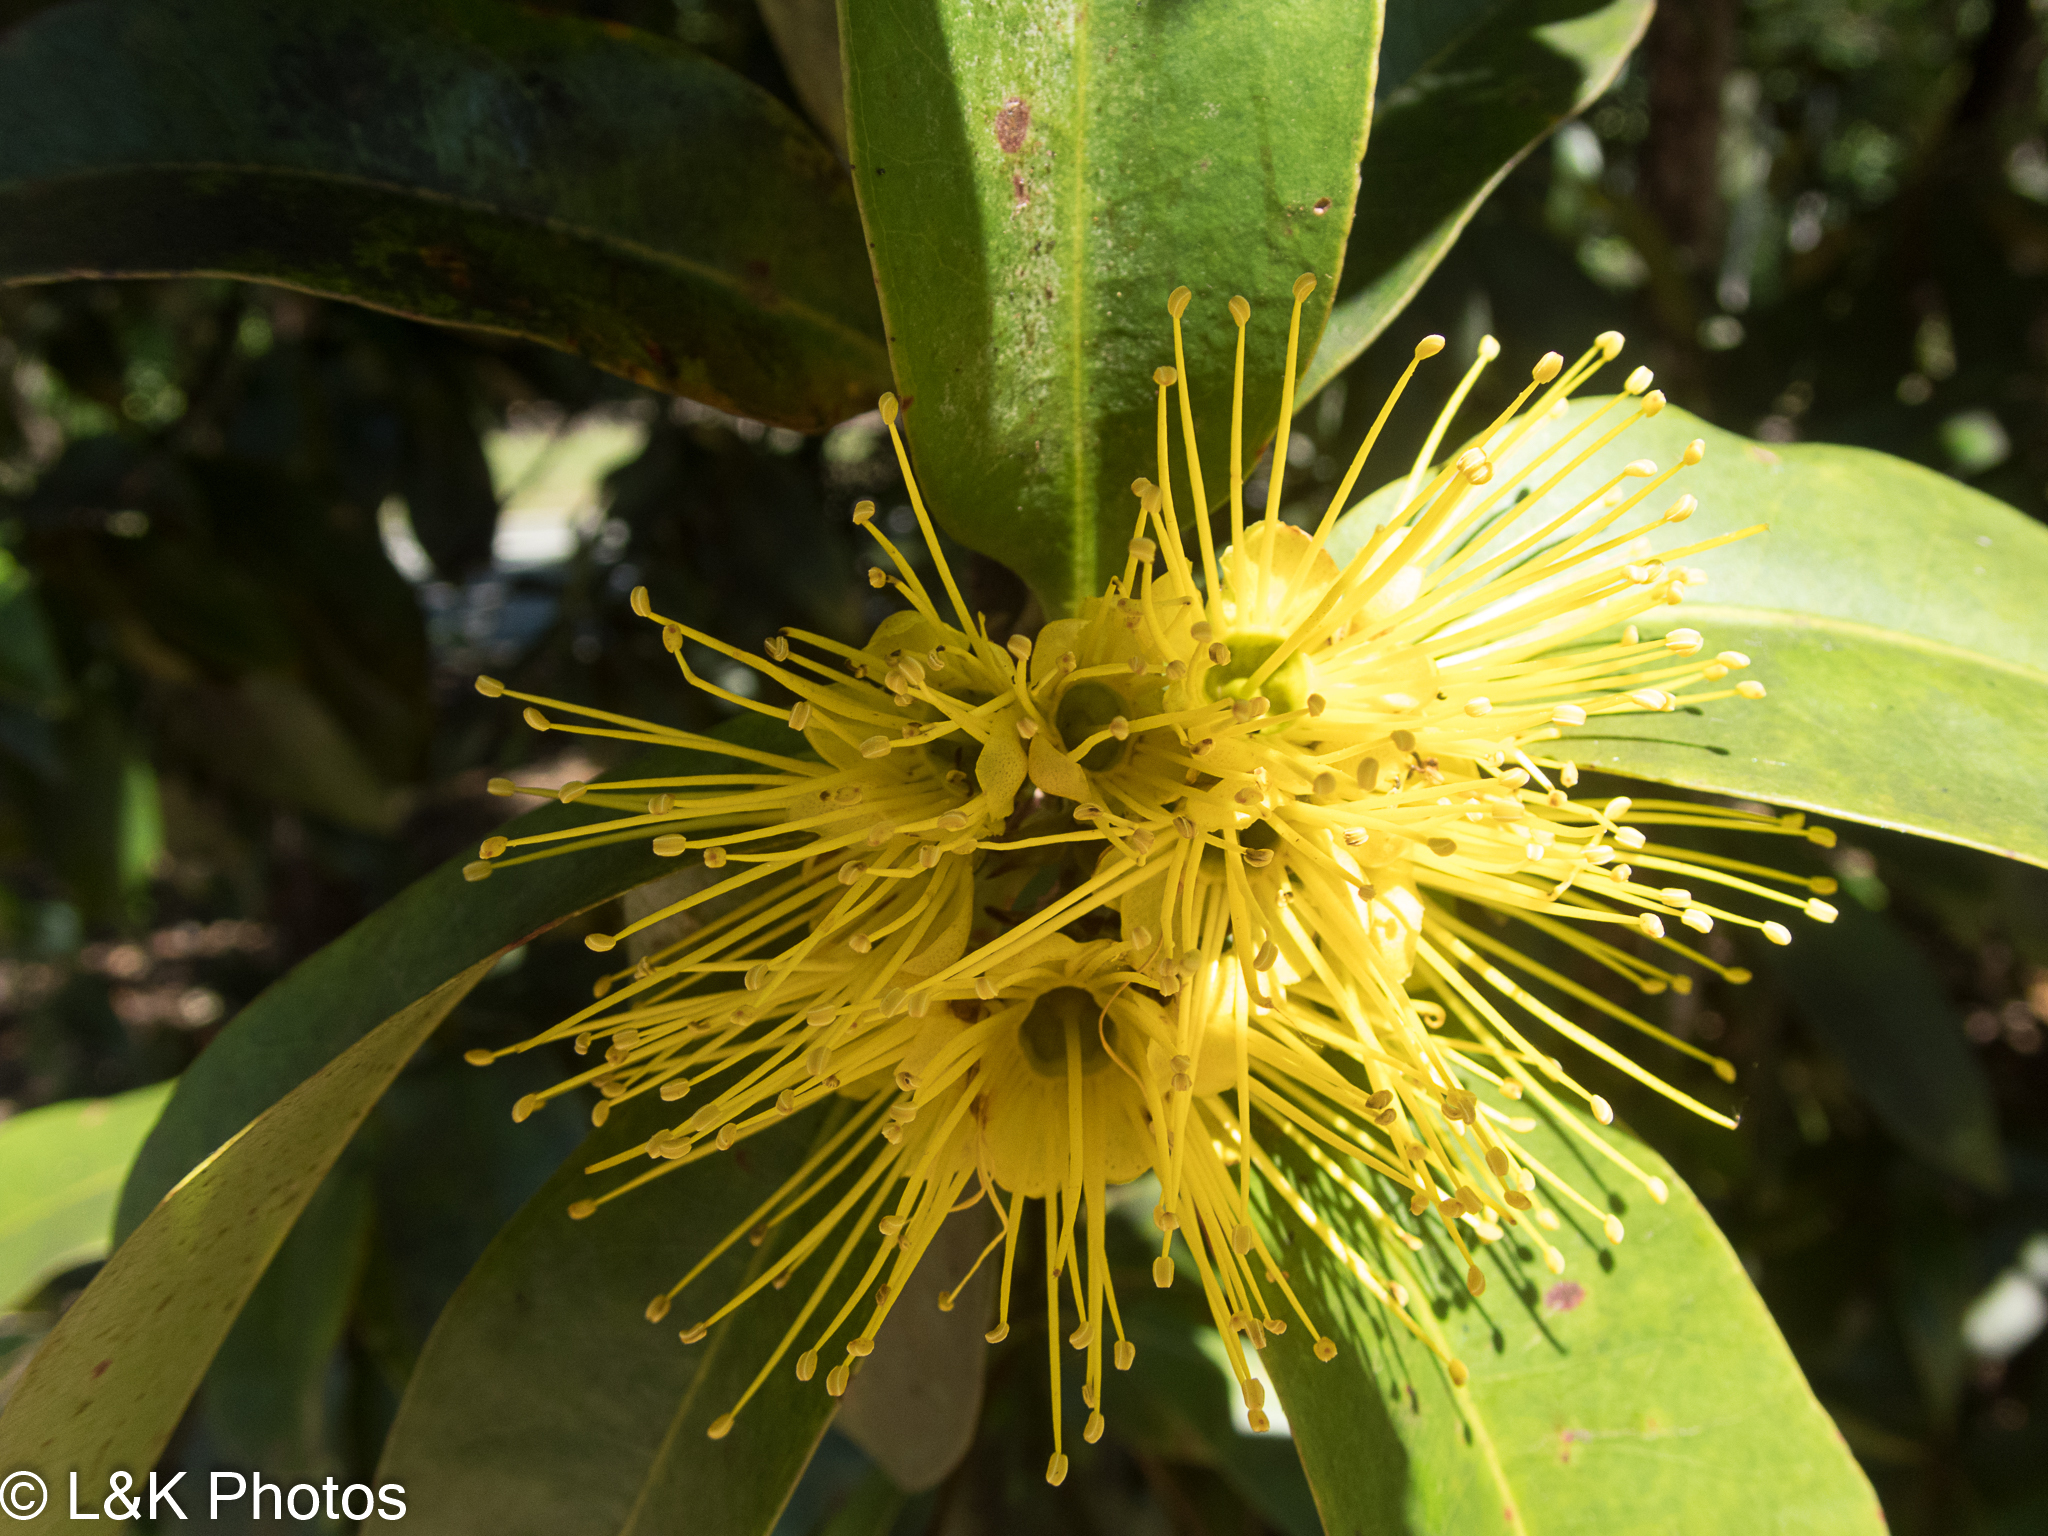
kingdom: Plantae
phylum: Tracheophyta
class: Magnoliopsida
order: Myrtales
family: Myrtaceae
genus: Xanthostemon
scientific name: Xanthostemon chrysanthus
